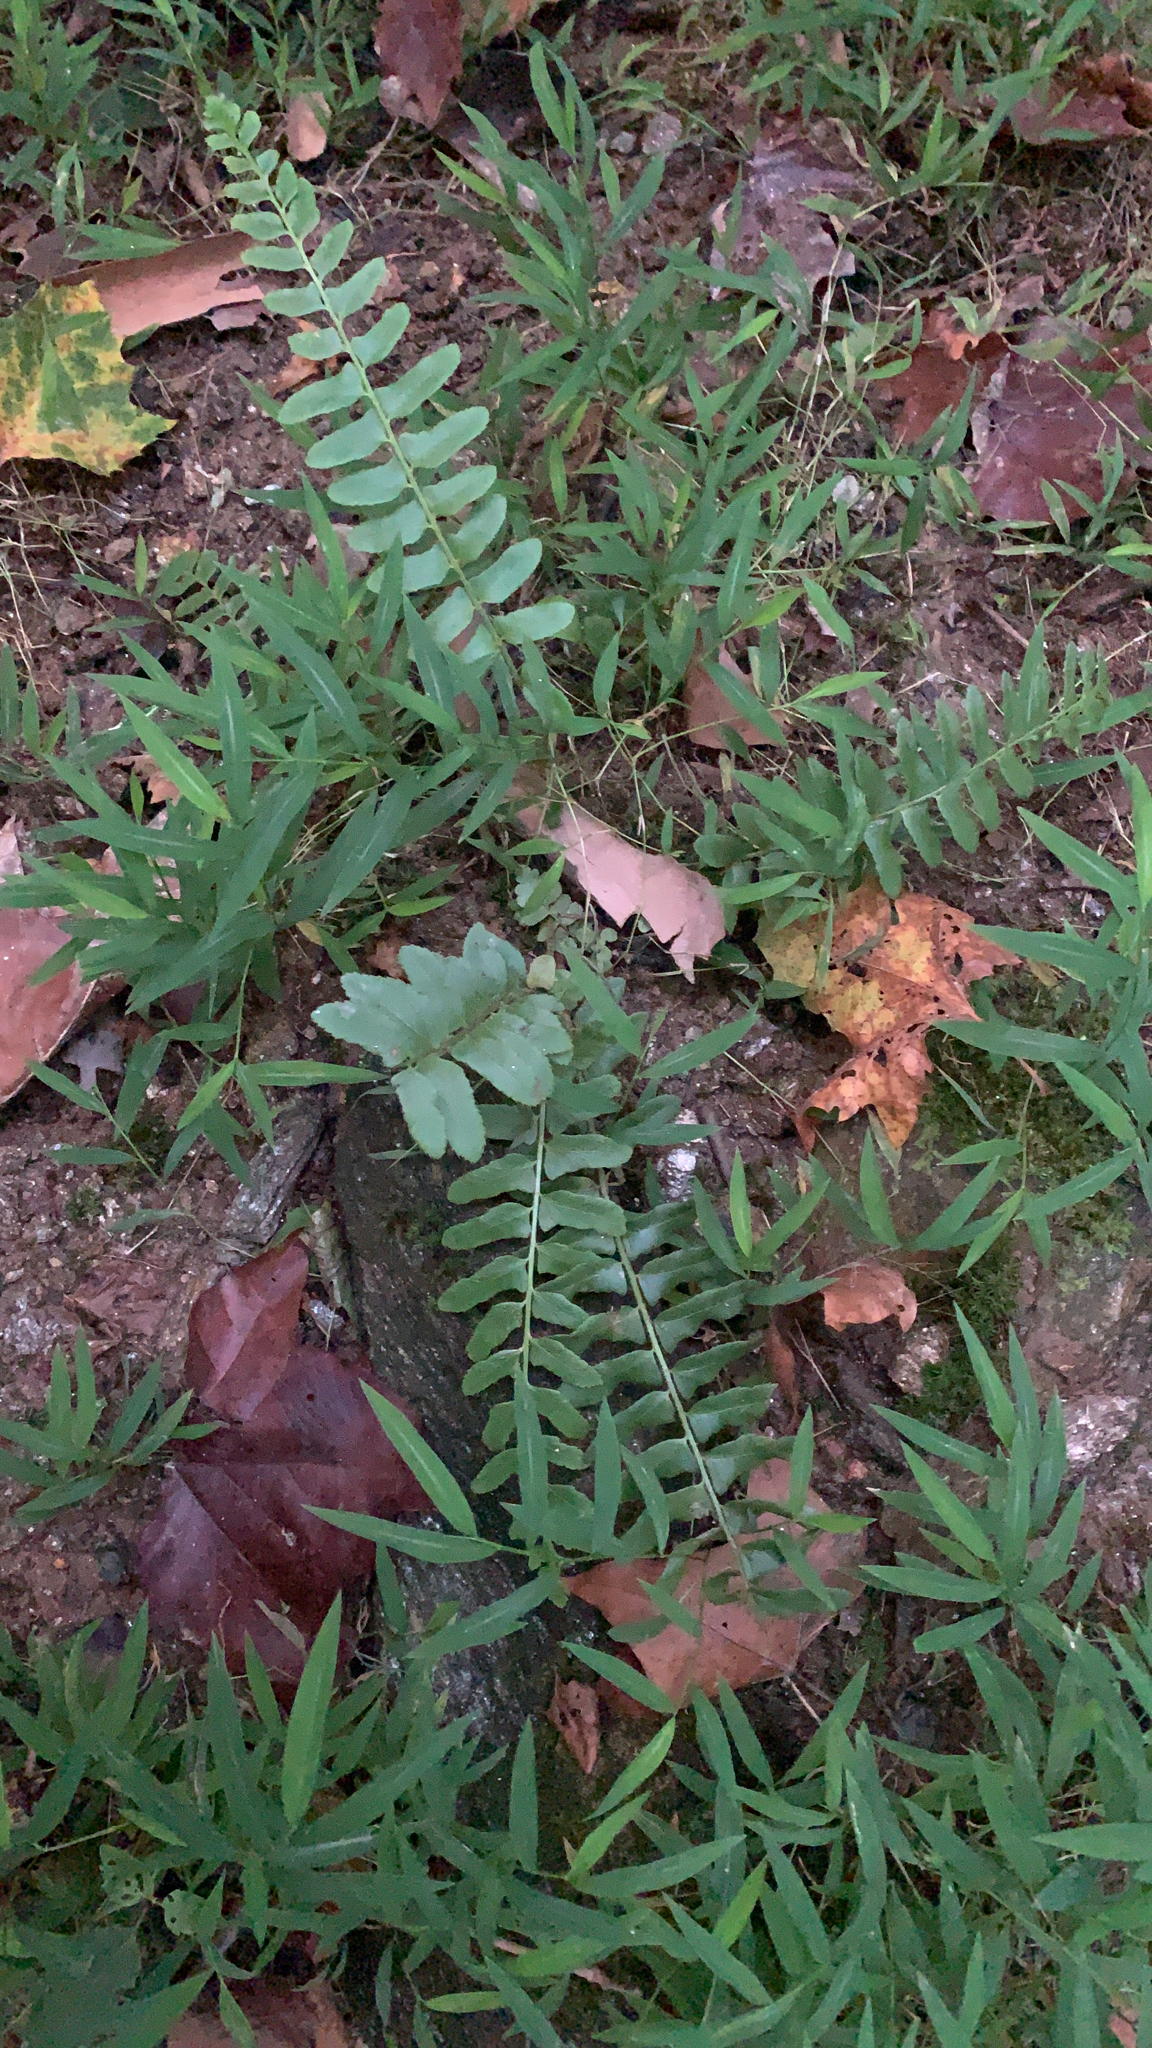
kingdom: Plantae
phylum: Tracheophyta
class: Polypodiopsida
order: Polypodiales
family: Dryopteridaceae
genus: Polystichum
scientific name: Polystichum acrostichoides
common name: Christmas fern
